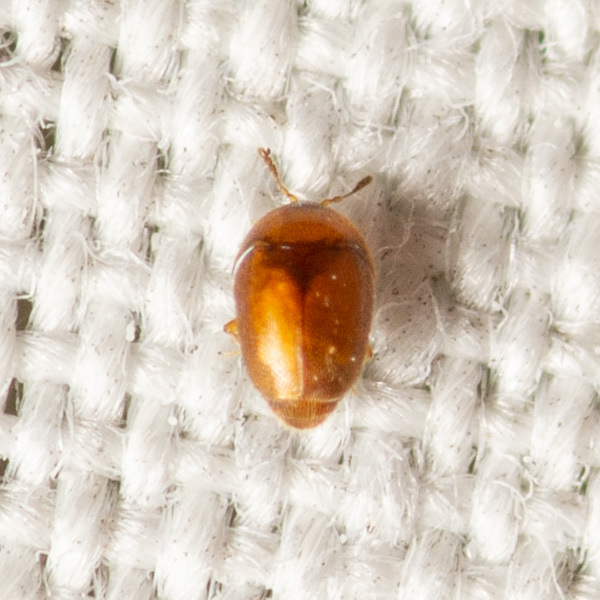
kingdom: Animalia
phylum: Arthropoda
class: Insecta
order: Coleoptera
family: Corylophidae
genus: Sericoderus
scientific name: Sericoderus
